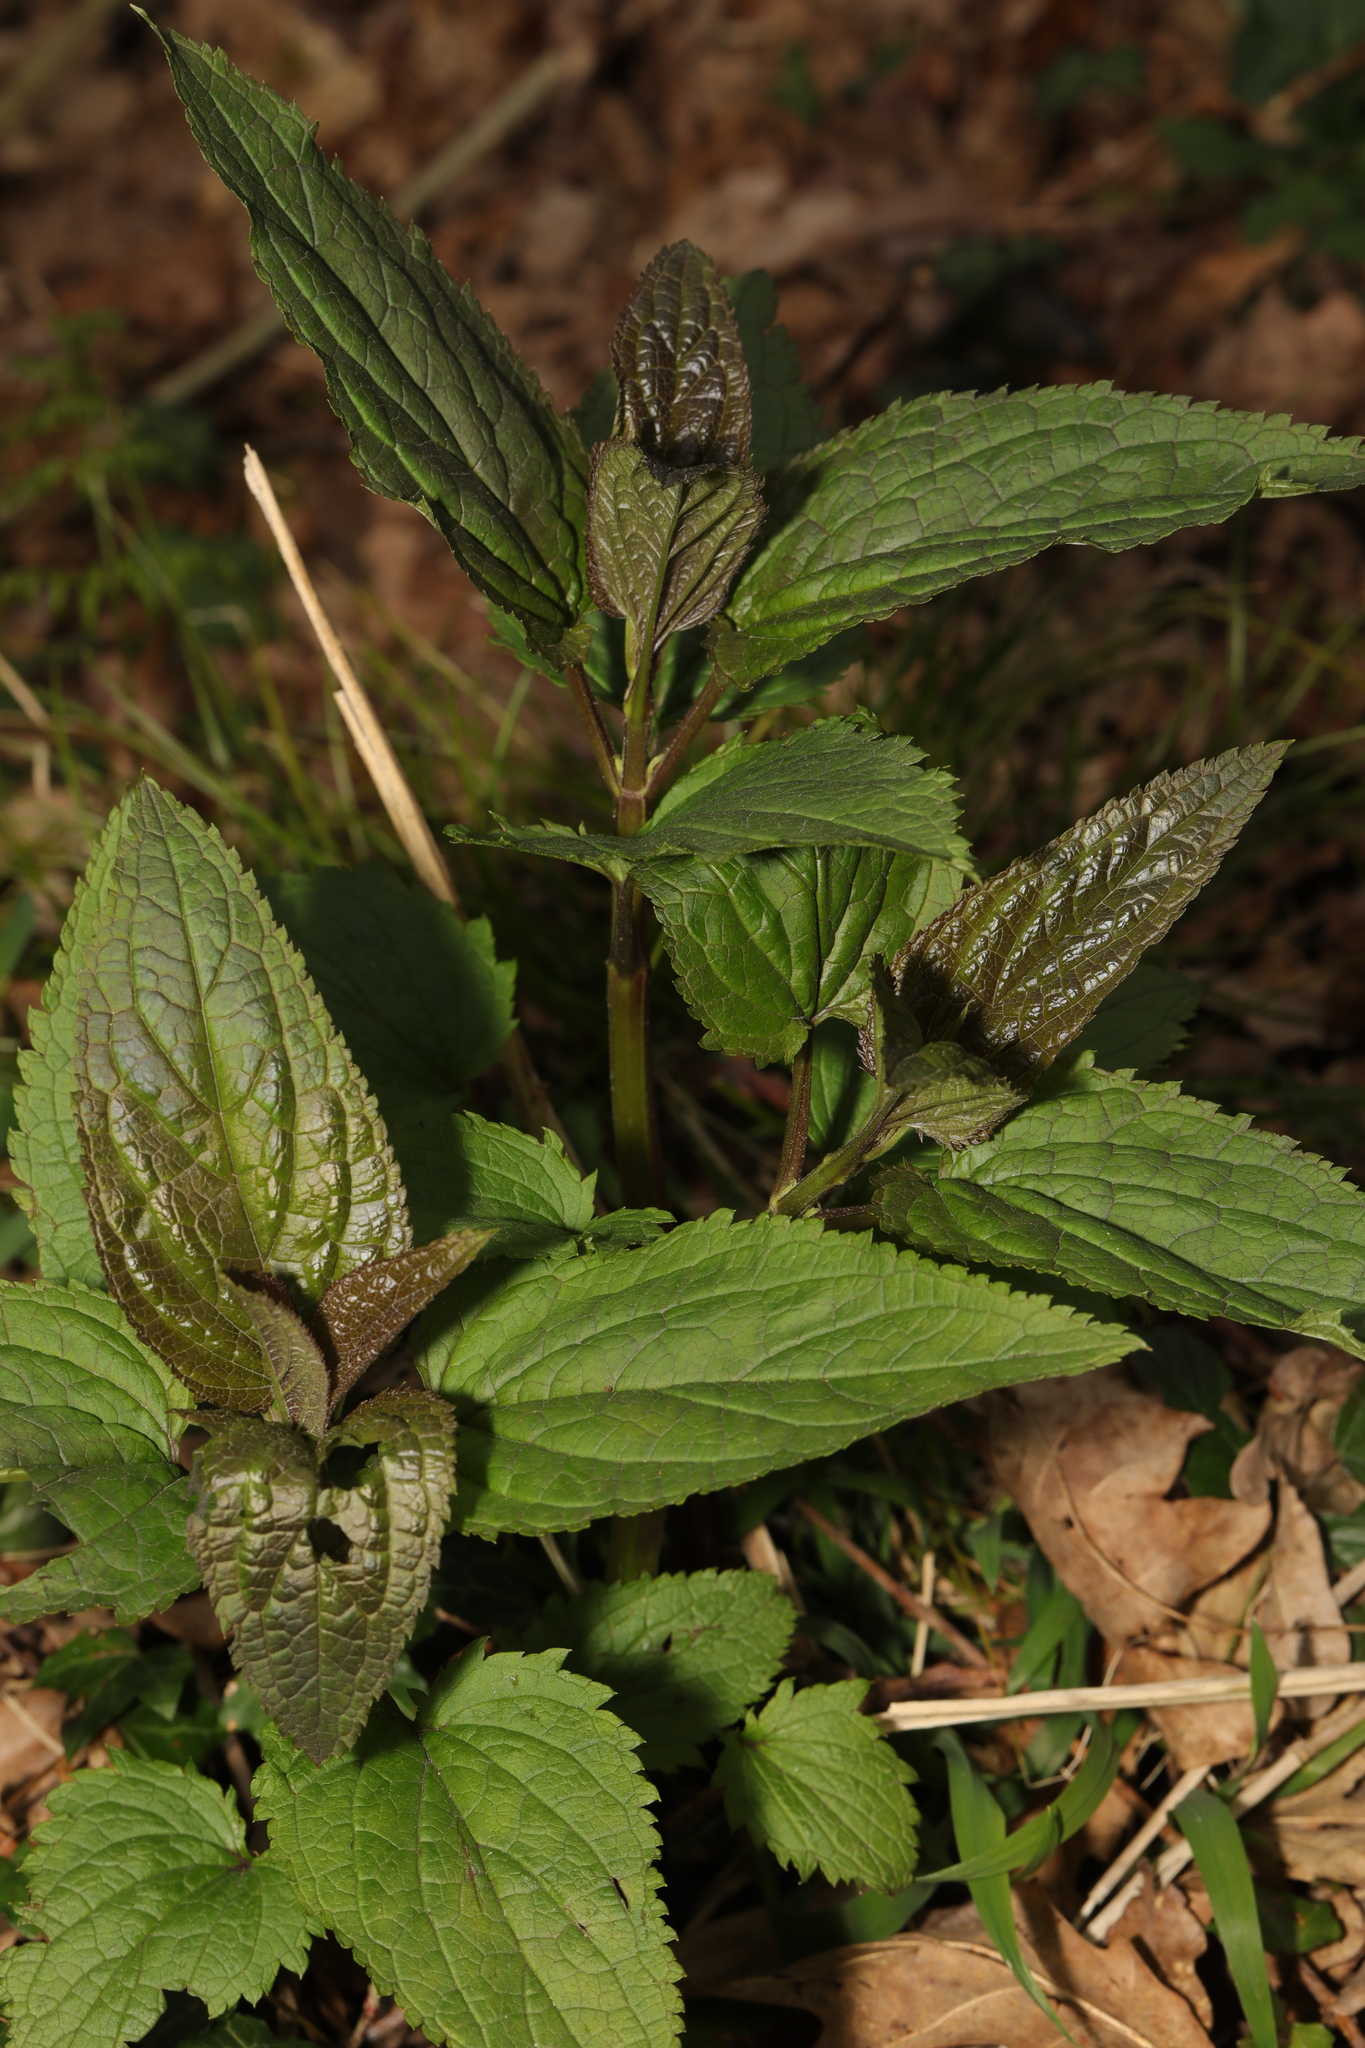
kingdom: Plantae
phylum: Tracheophyta
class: Magnoliopsida
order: Lamiales
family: Scrophulariaceae
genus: Scrophularia
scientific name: Scrophularia nodosa
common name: Common figwort
